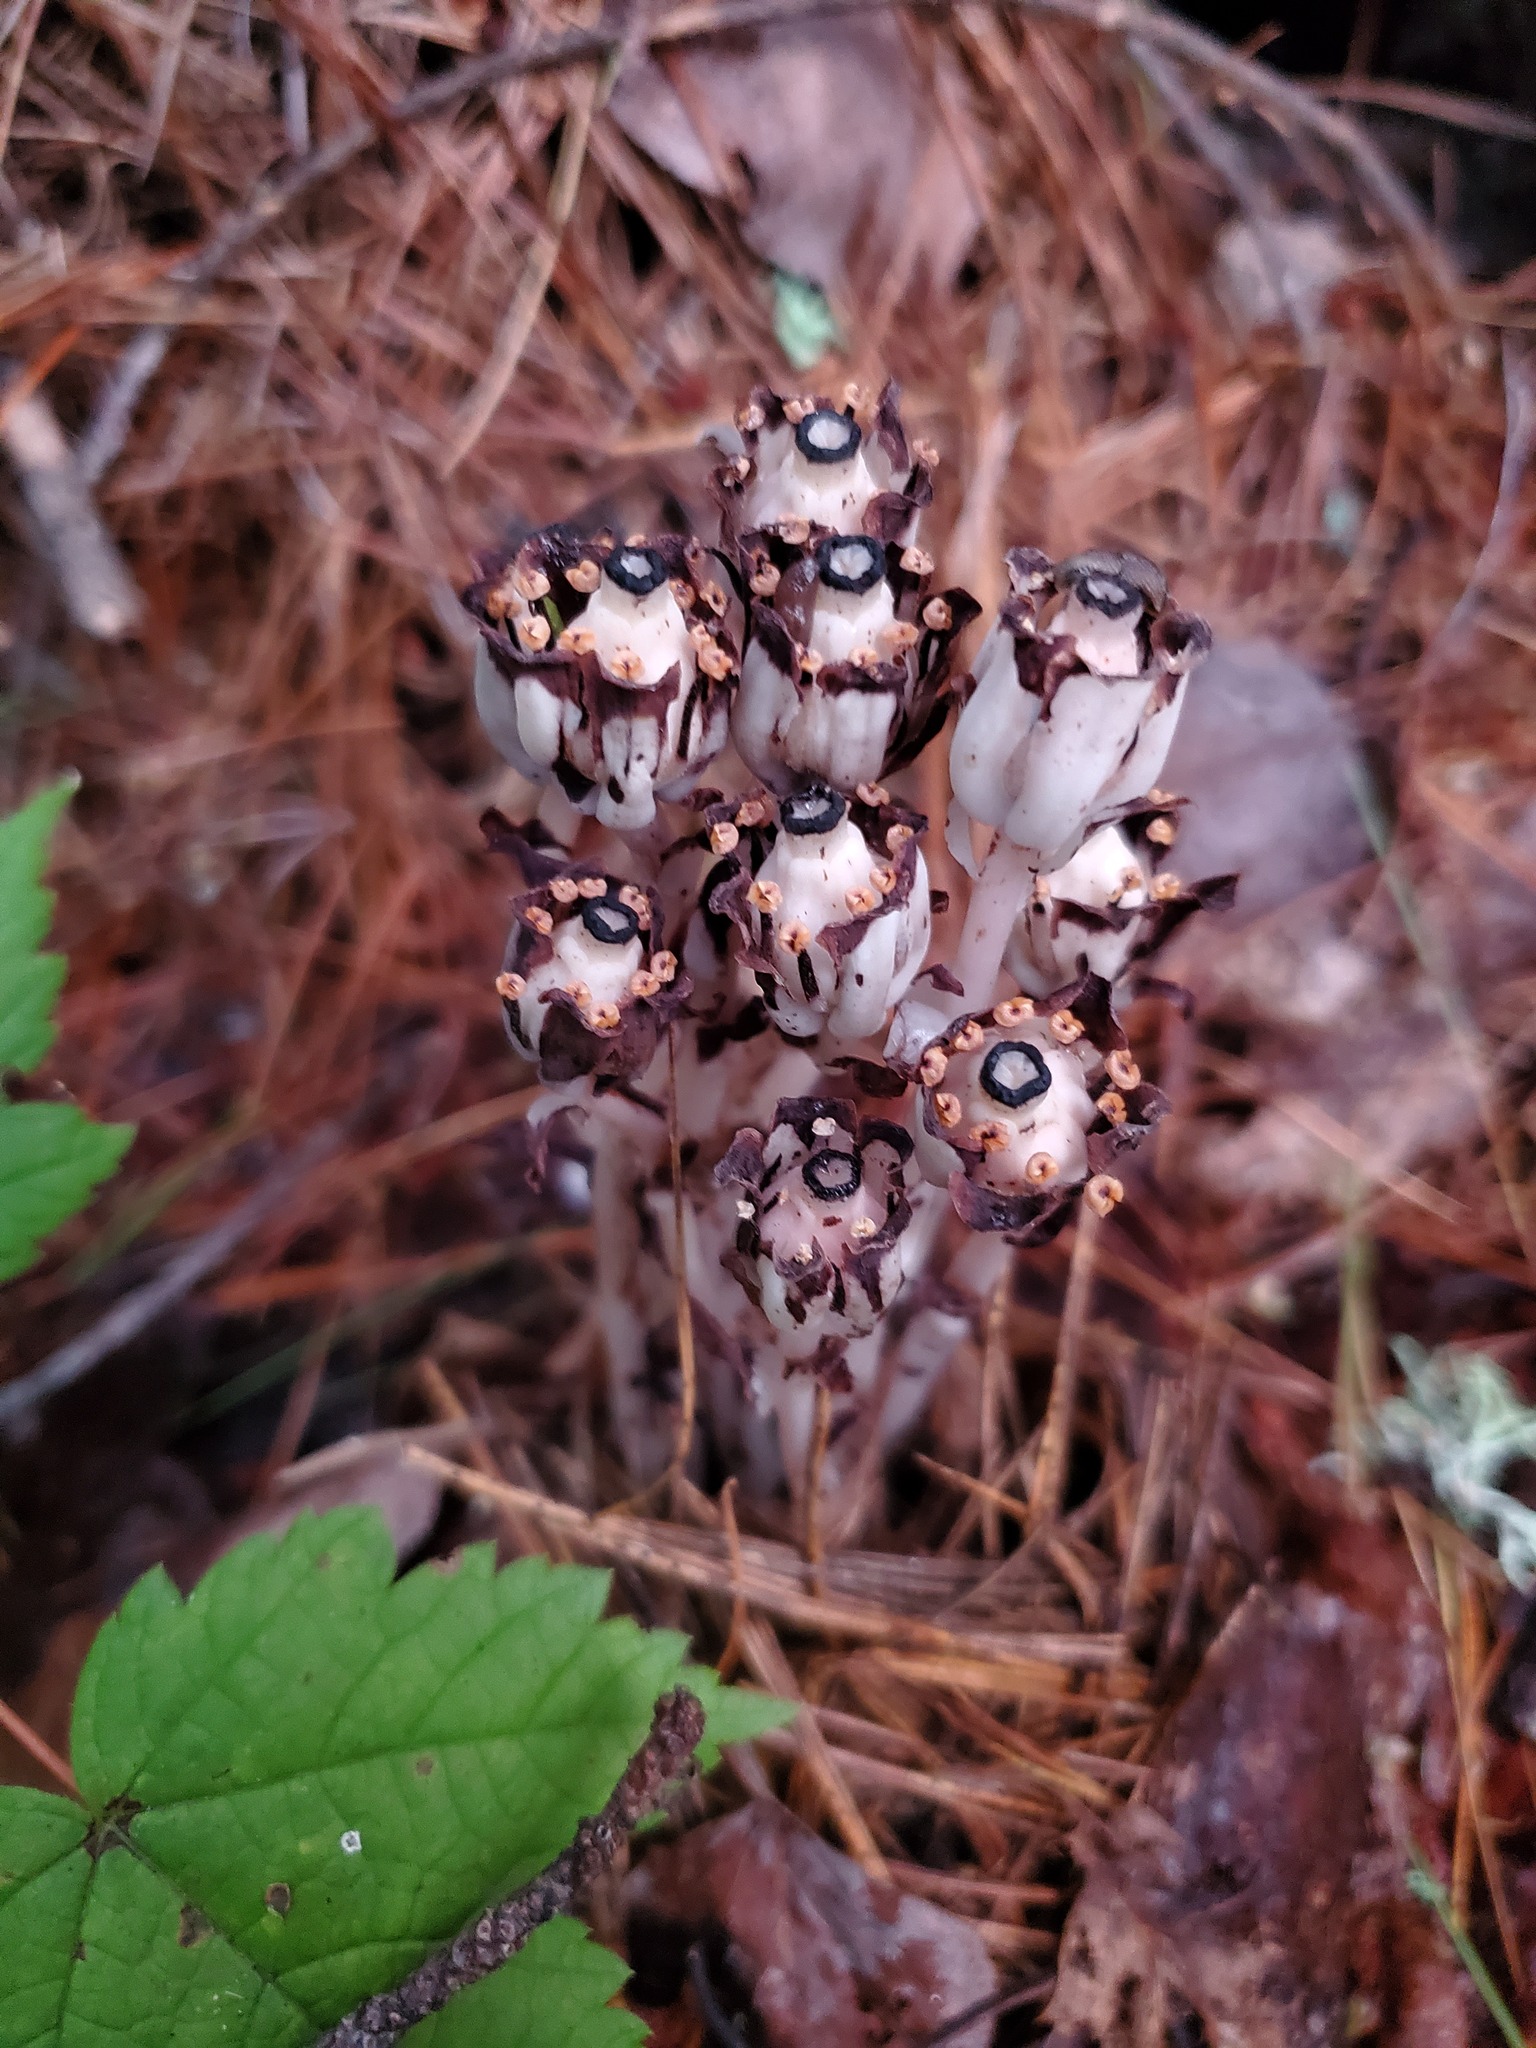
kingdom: Plantae
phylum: Tracheophyta
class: Magnoliopsida
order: Ericales
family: Ericaceae
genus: Monotropa
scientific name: Monotropa uniflora
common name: Convulsion root
